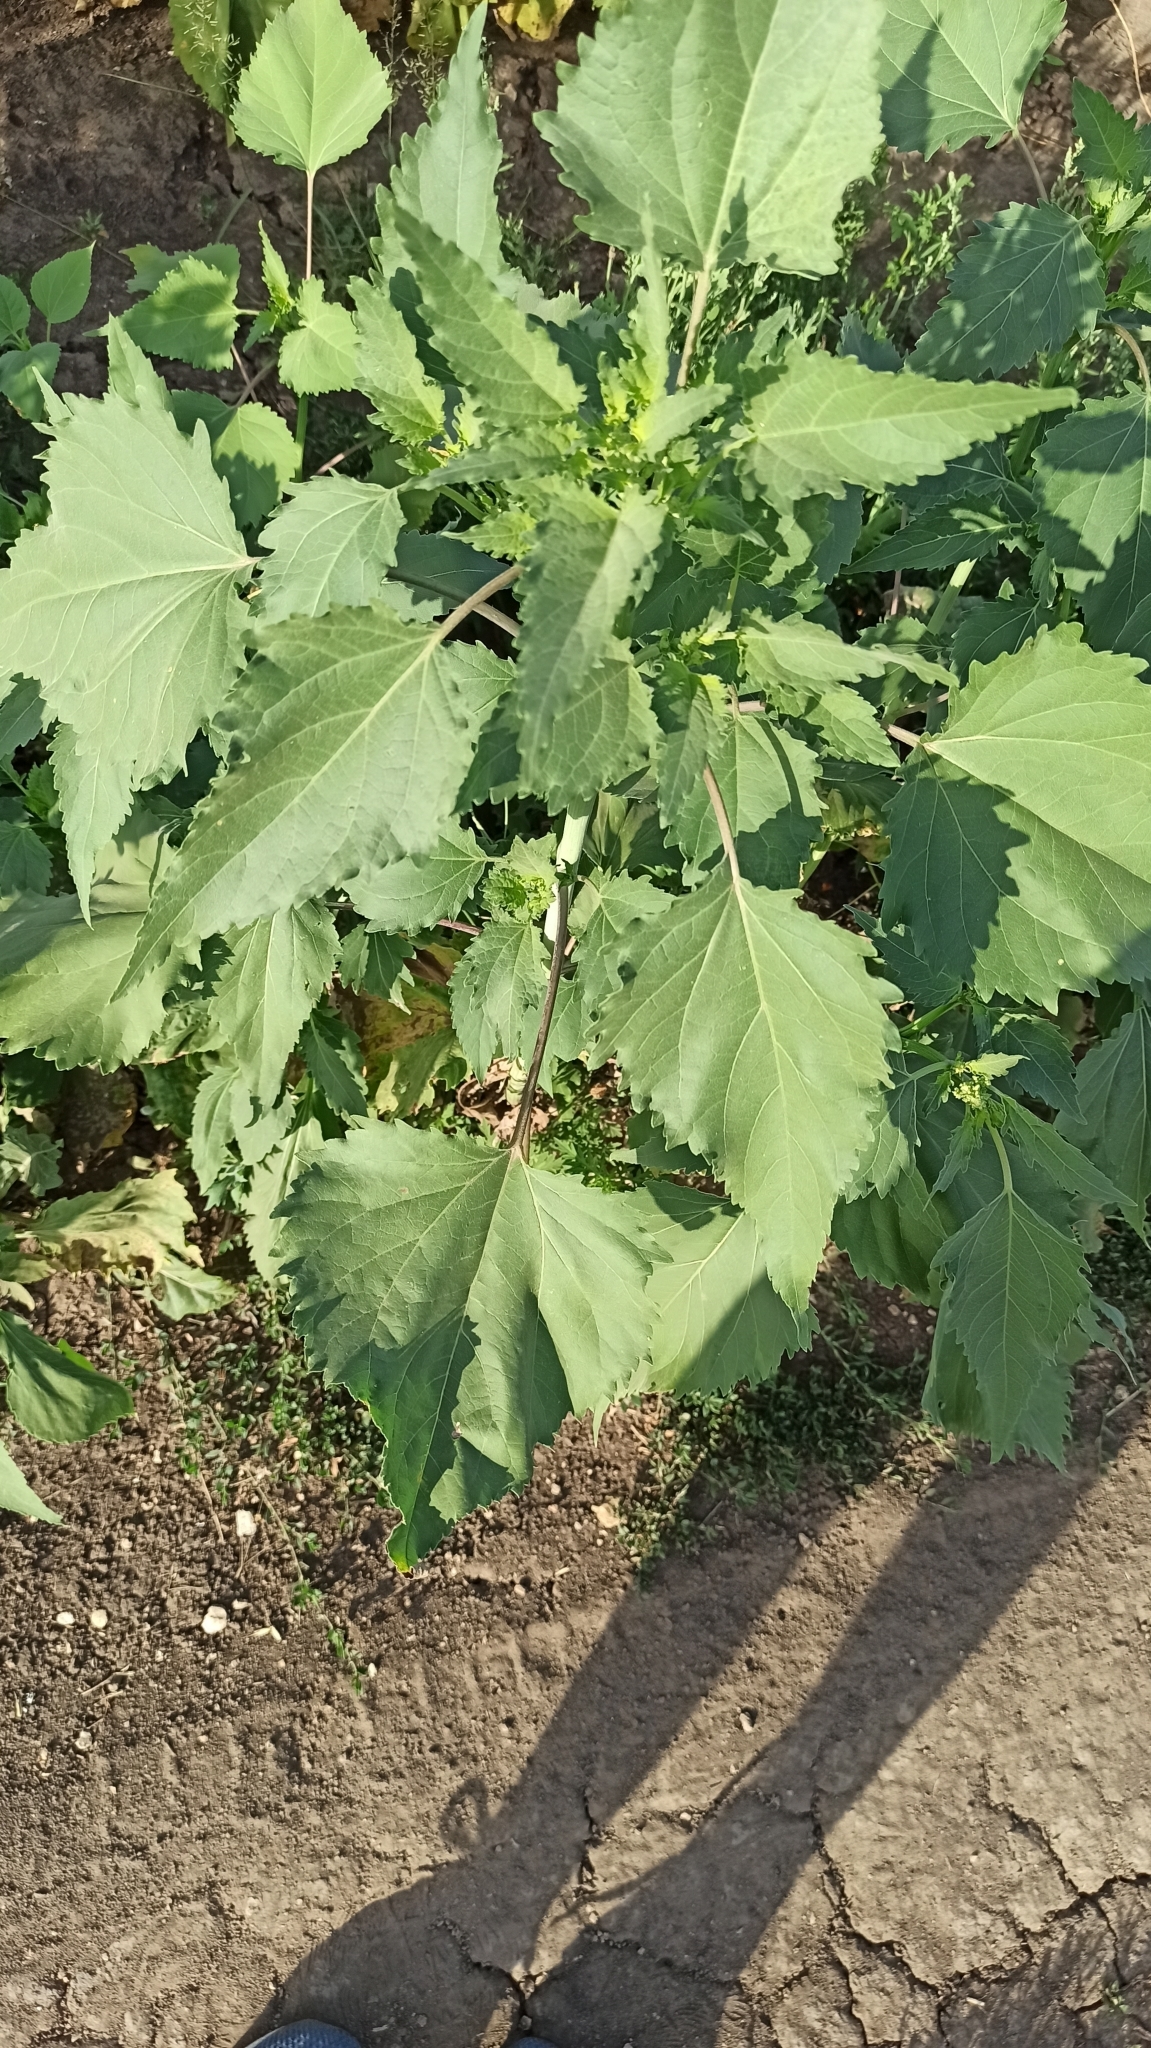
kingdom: Plantae
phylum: Tracheophyta
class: Magnoliopsida
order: Asterales
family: Asteraceae
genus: Cyclachaena
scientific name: Cyclachaena xanthiifolia
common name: Giant sumpweed
